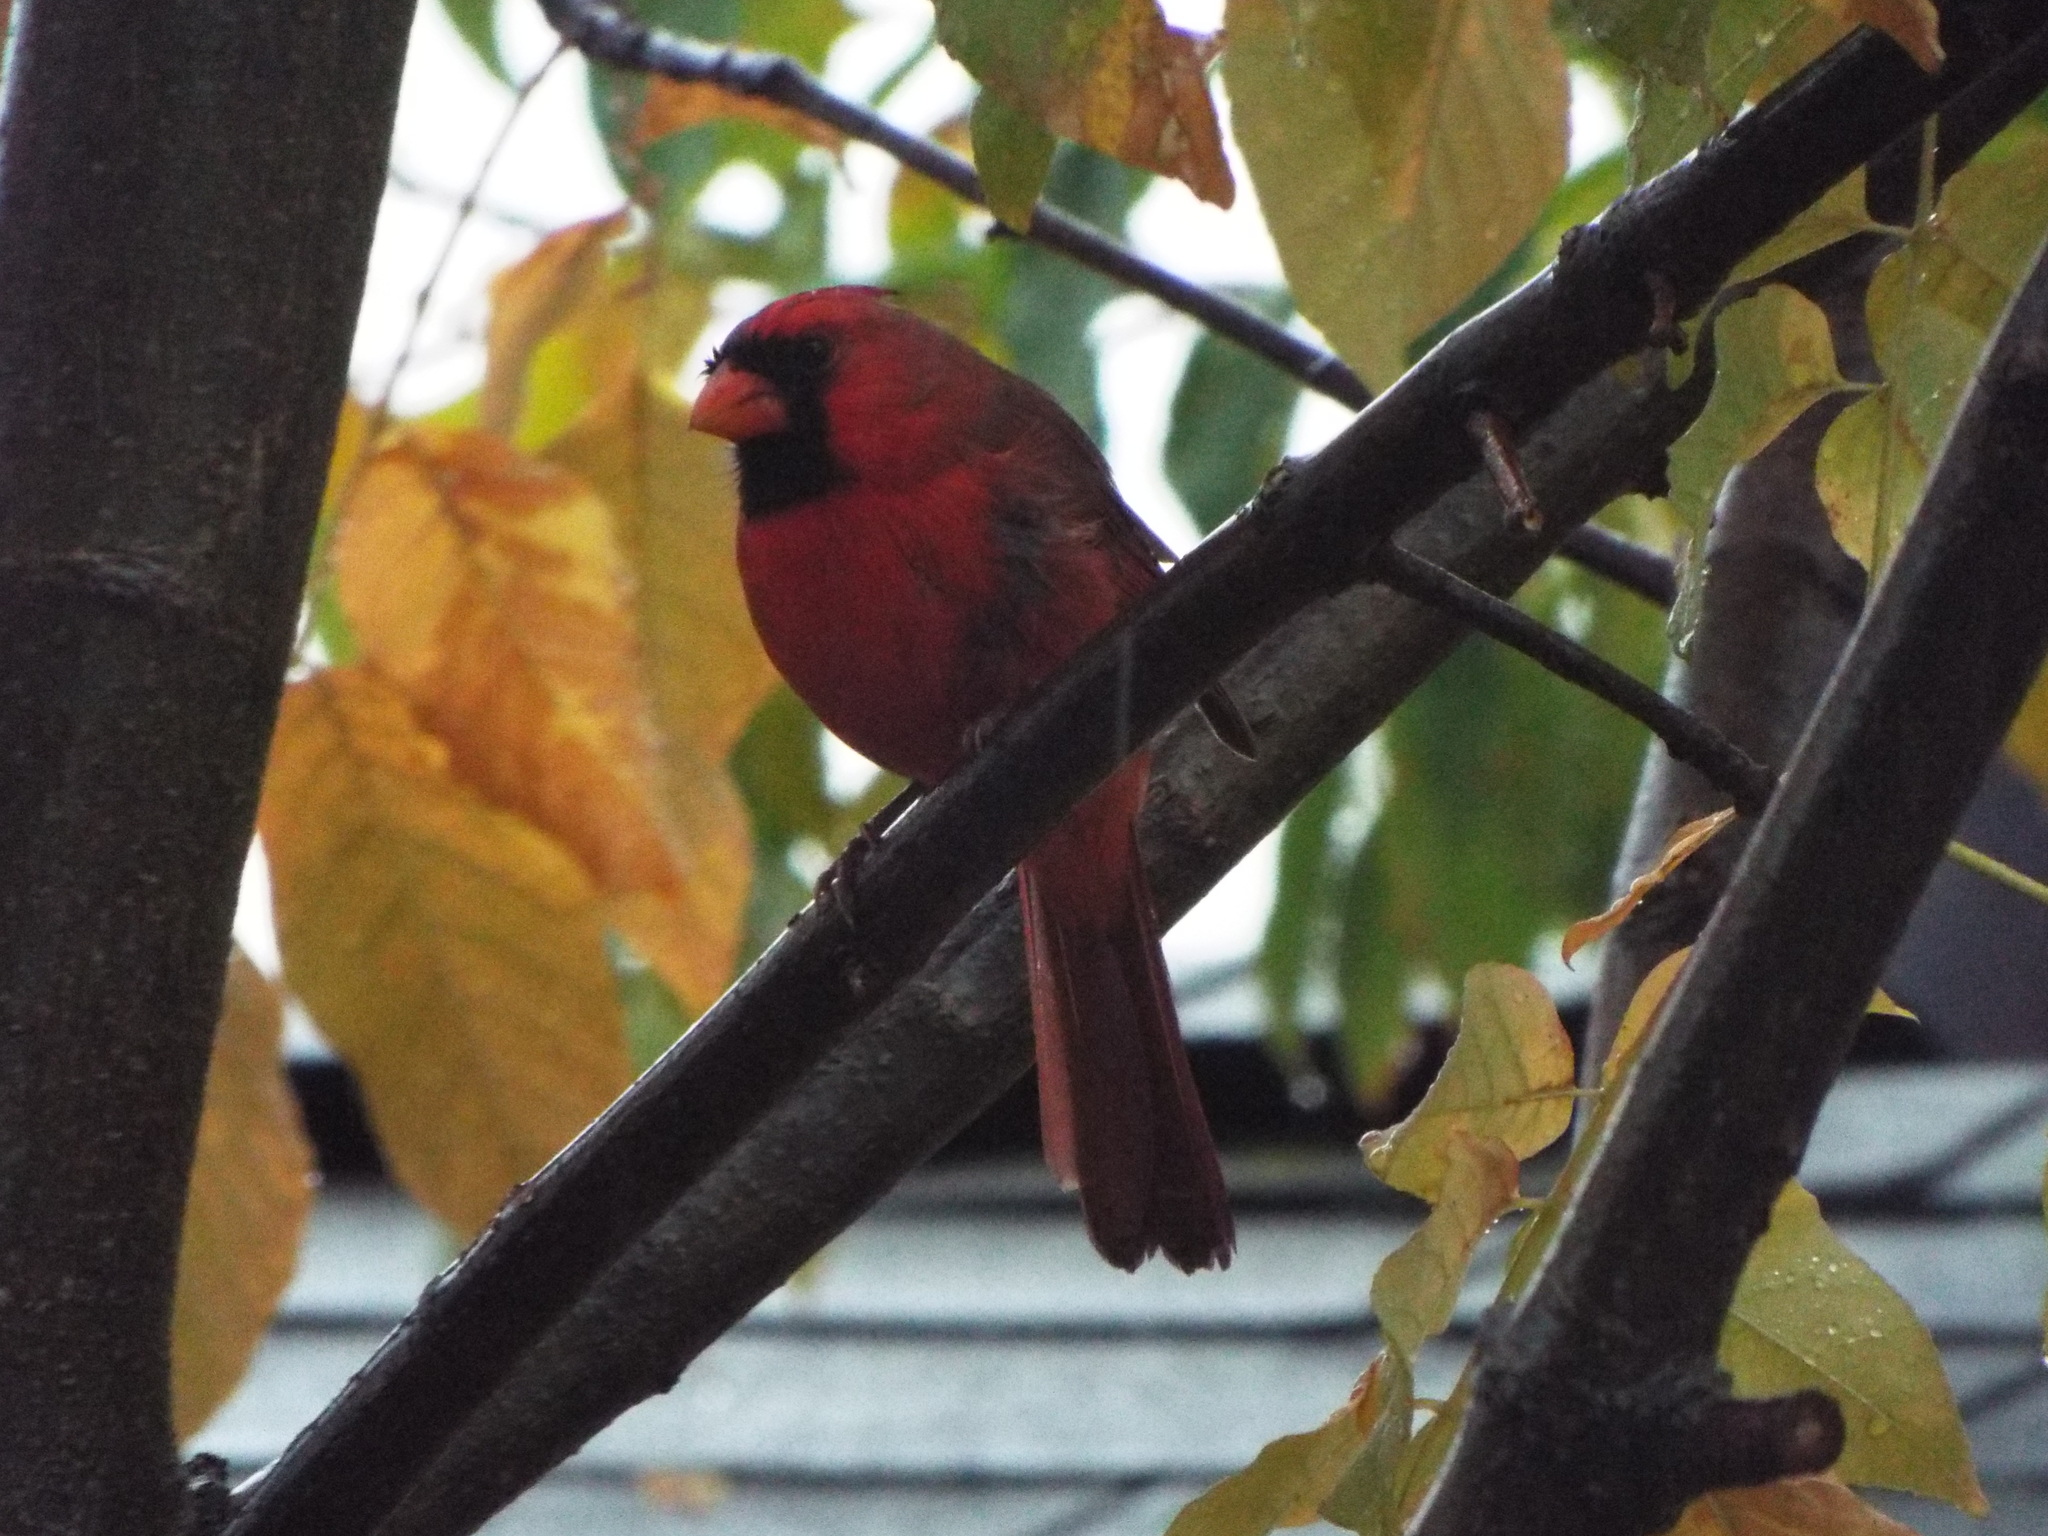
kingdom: Animalia
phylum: Chordata
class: Aves
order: Passeriformes
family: Cardinalidae
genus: Cardinalis
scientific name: Cardinalis cardinalis
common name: Northern cardinal
